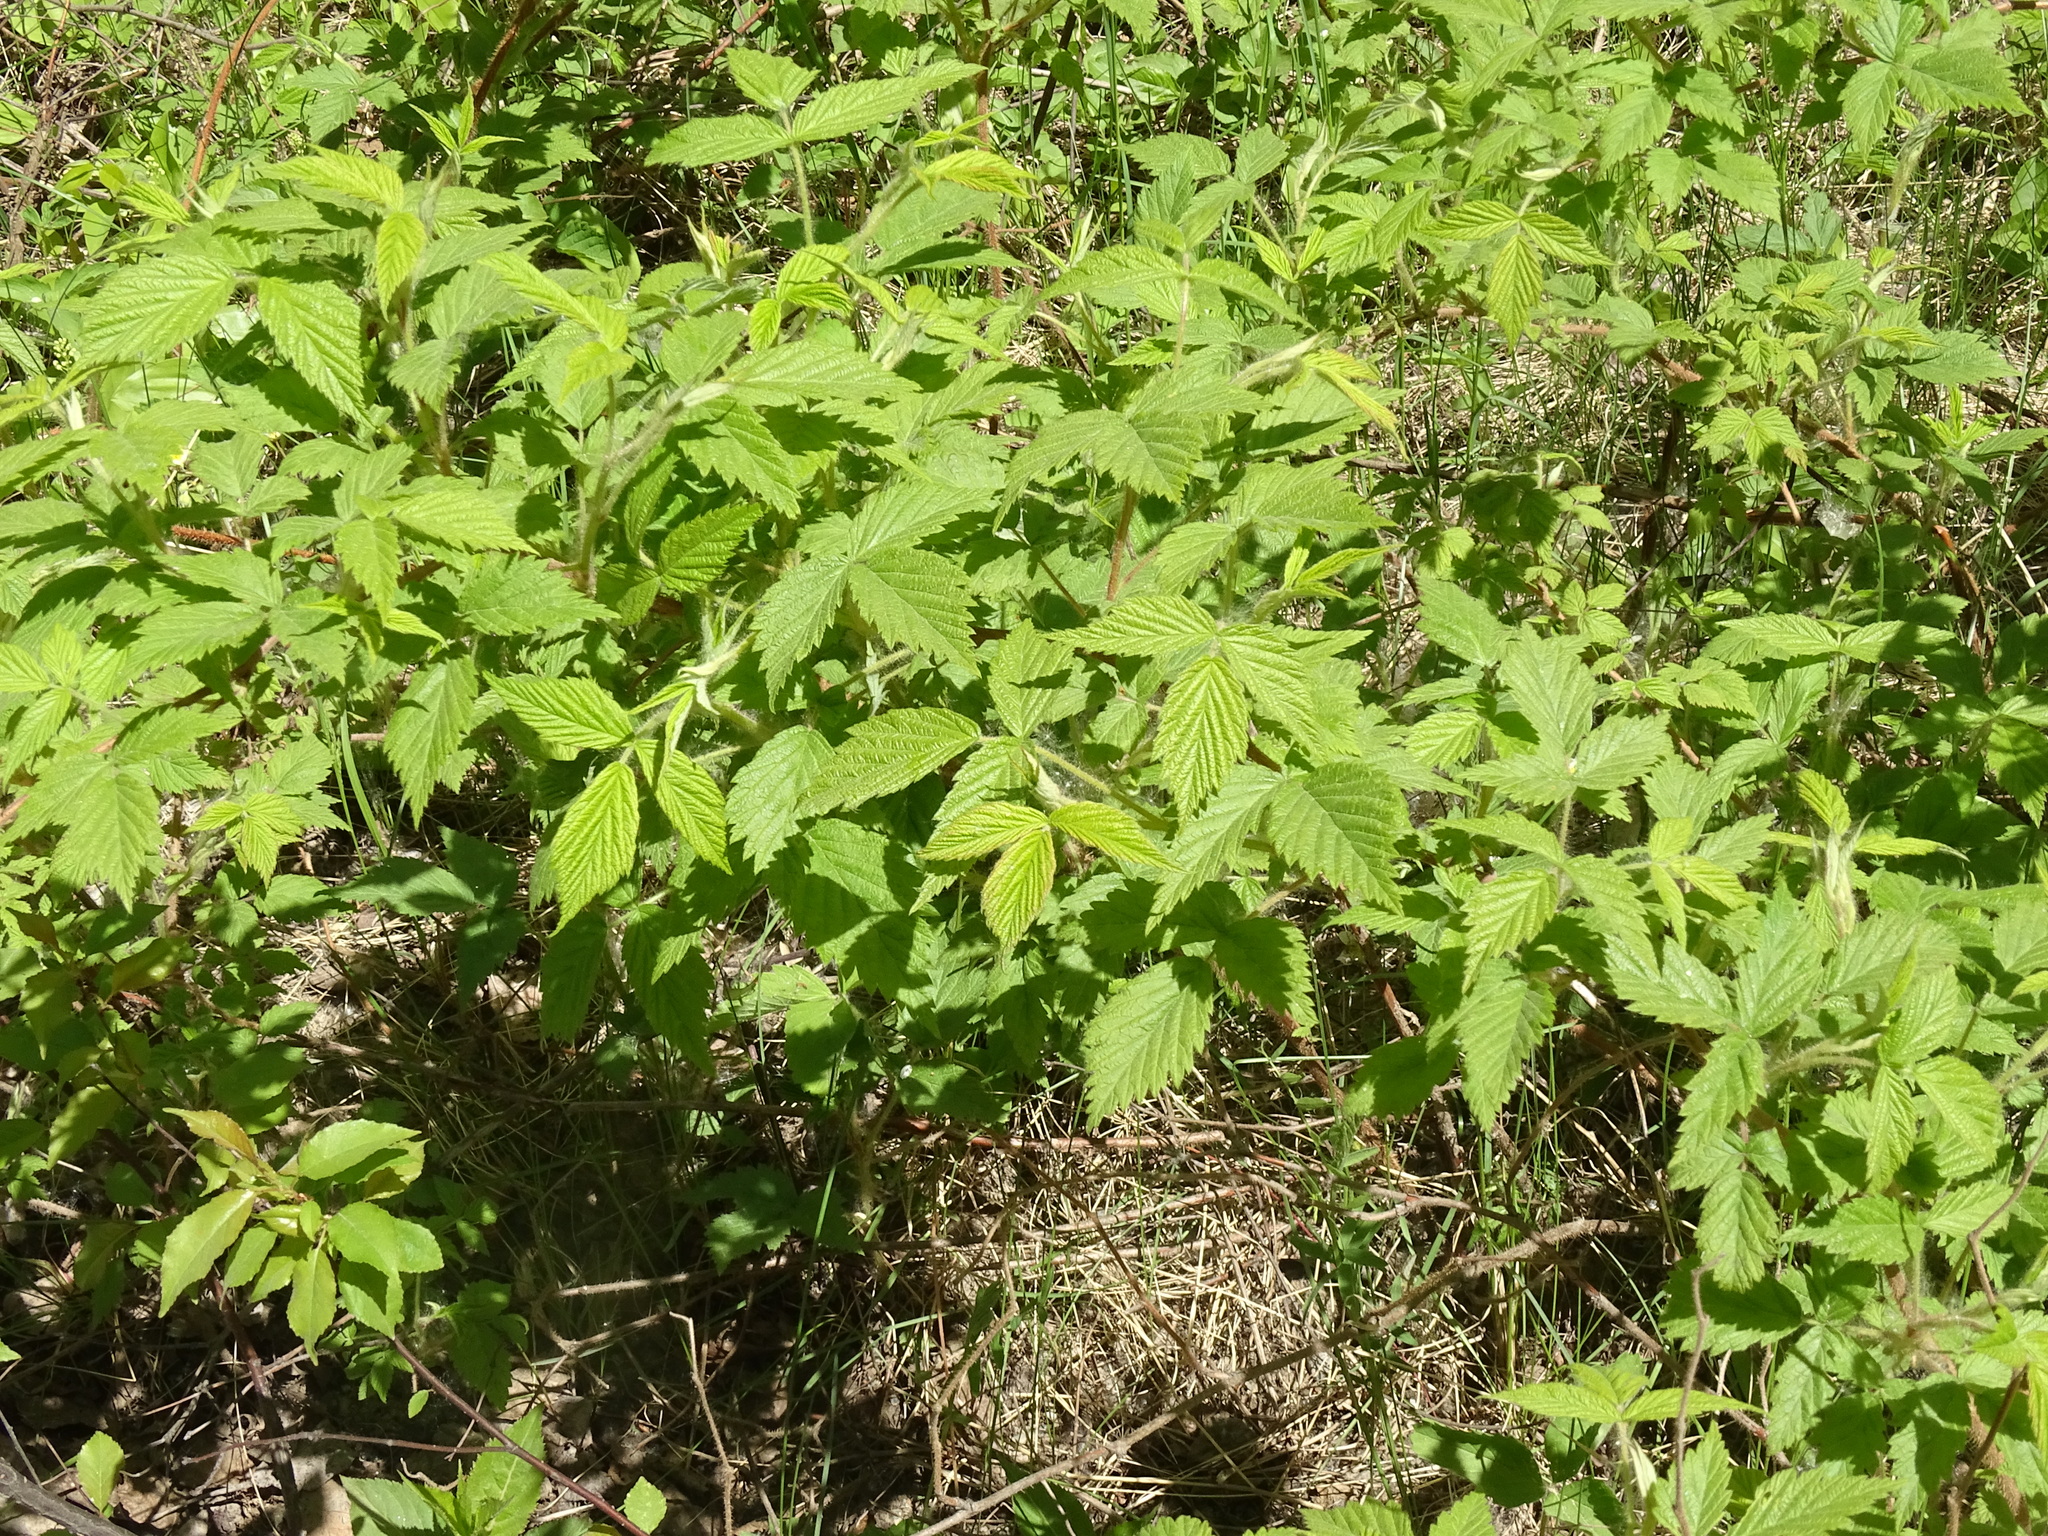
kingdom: Plantae
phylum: Tracheophyta
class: Magnoliopsida
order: Rosales
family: Rosaceae
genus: Rubus
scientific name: Rubus idaeus
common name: Raspberry
